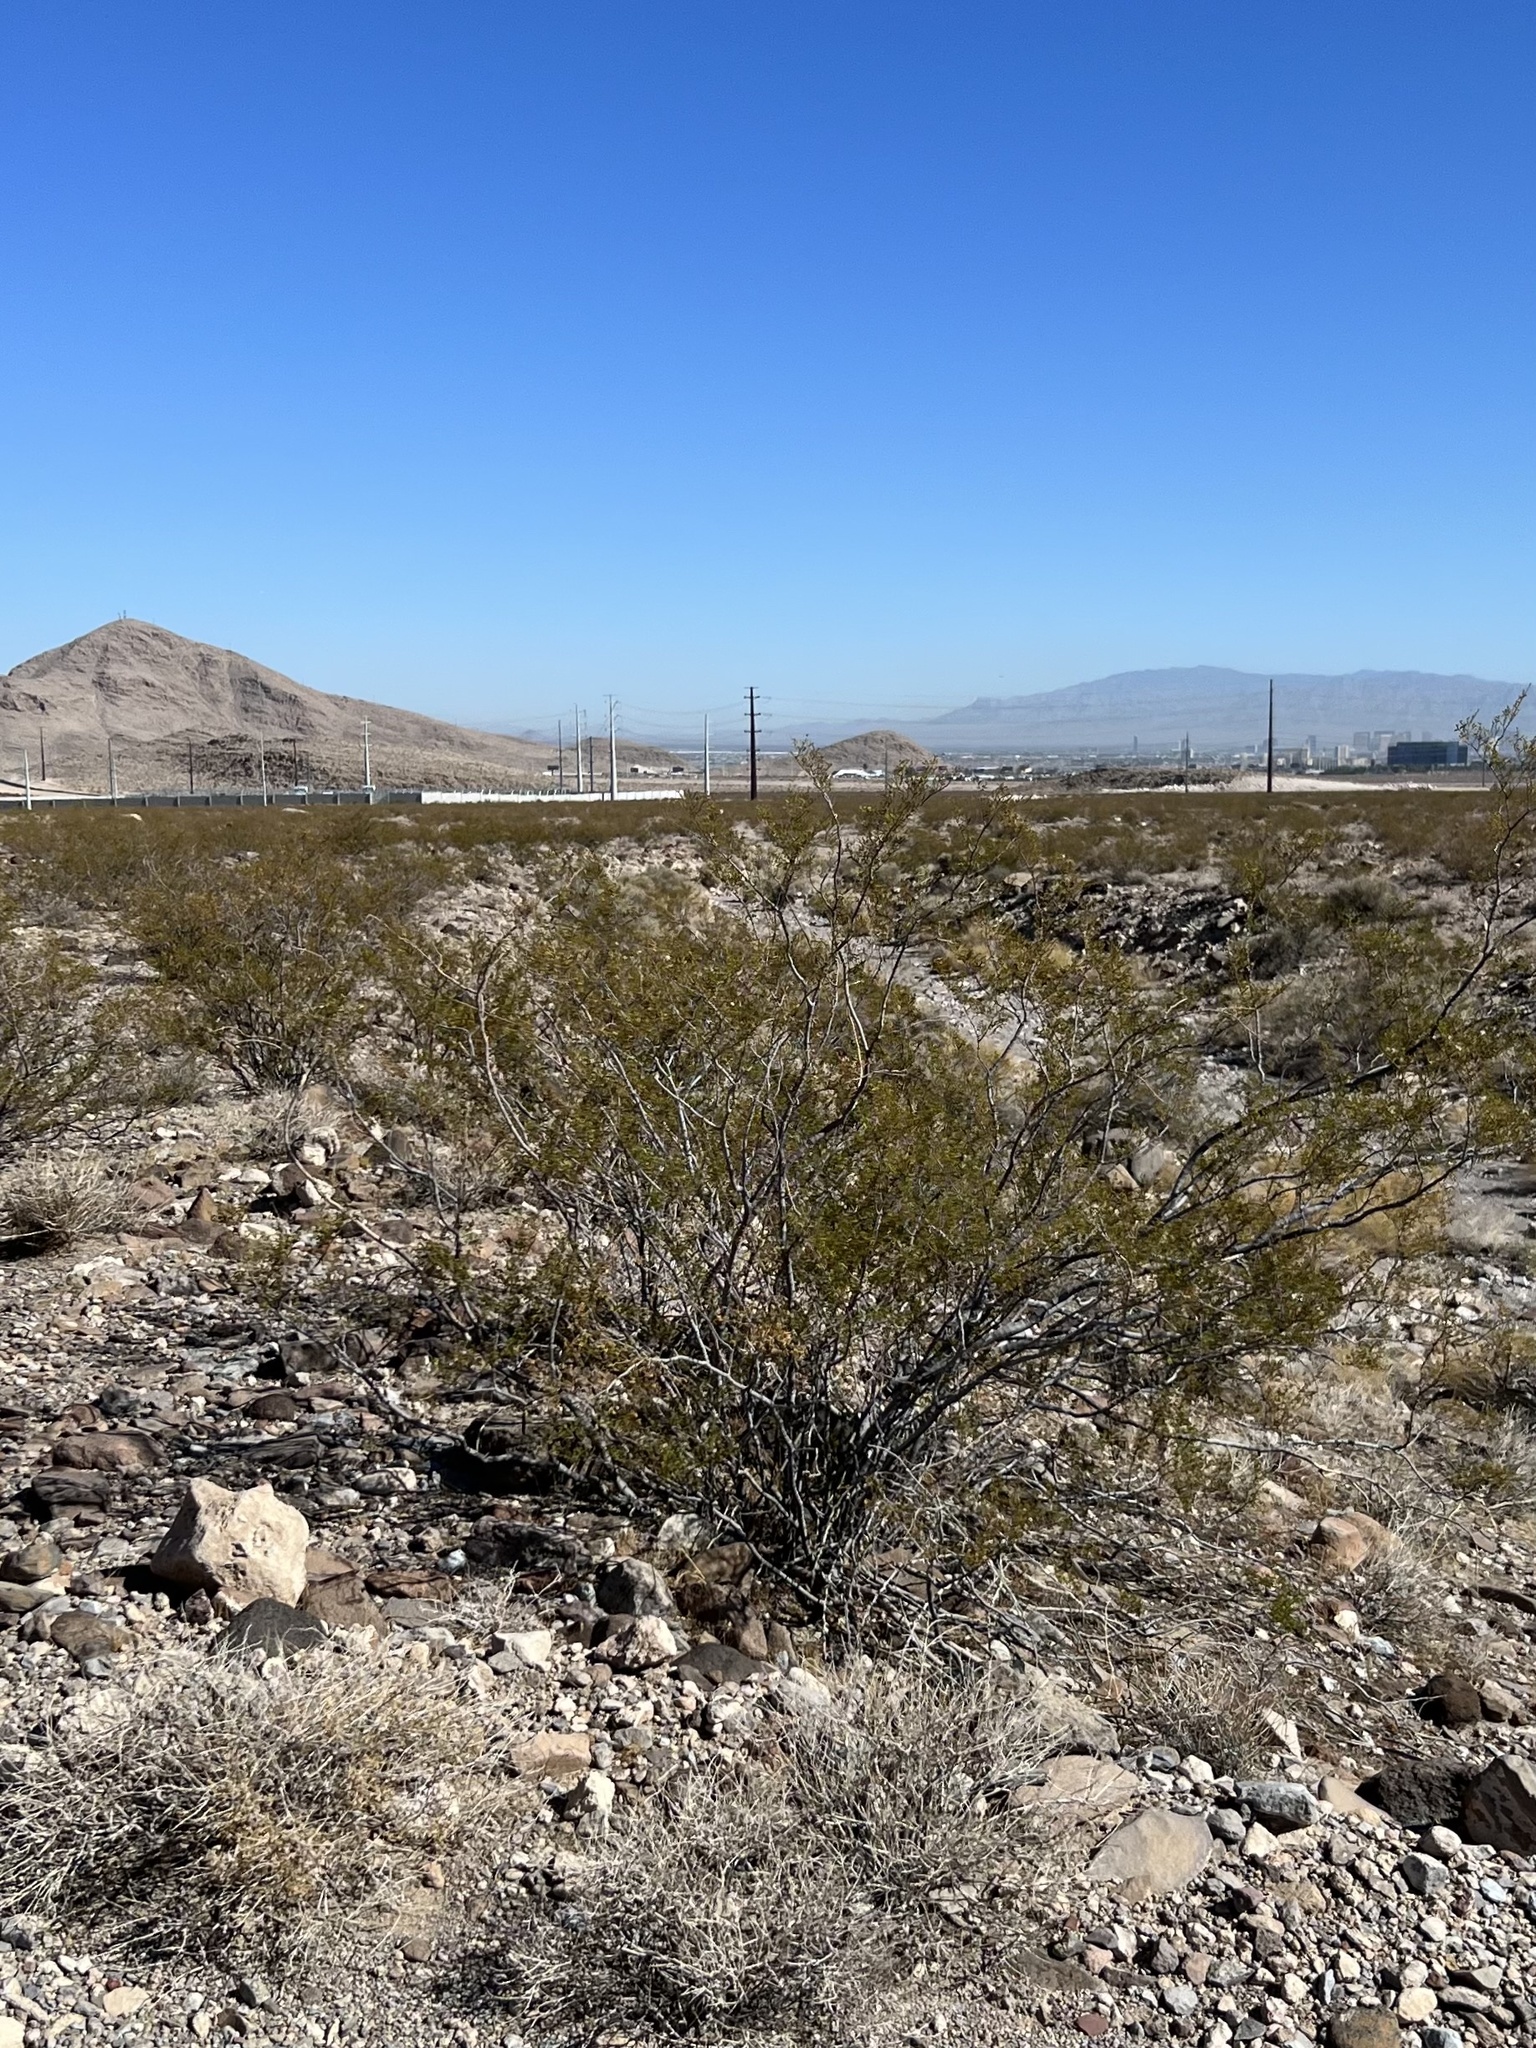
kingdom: Plantae
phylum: Tracheophyta
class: Magnoliopsida
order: Zygophyllales
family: Zygophyllaceae
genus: Larrea
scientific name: Larrea tridentata
